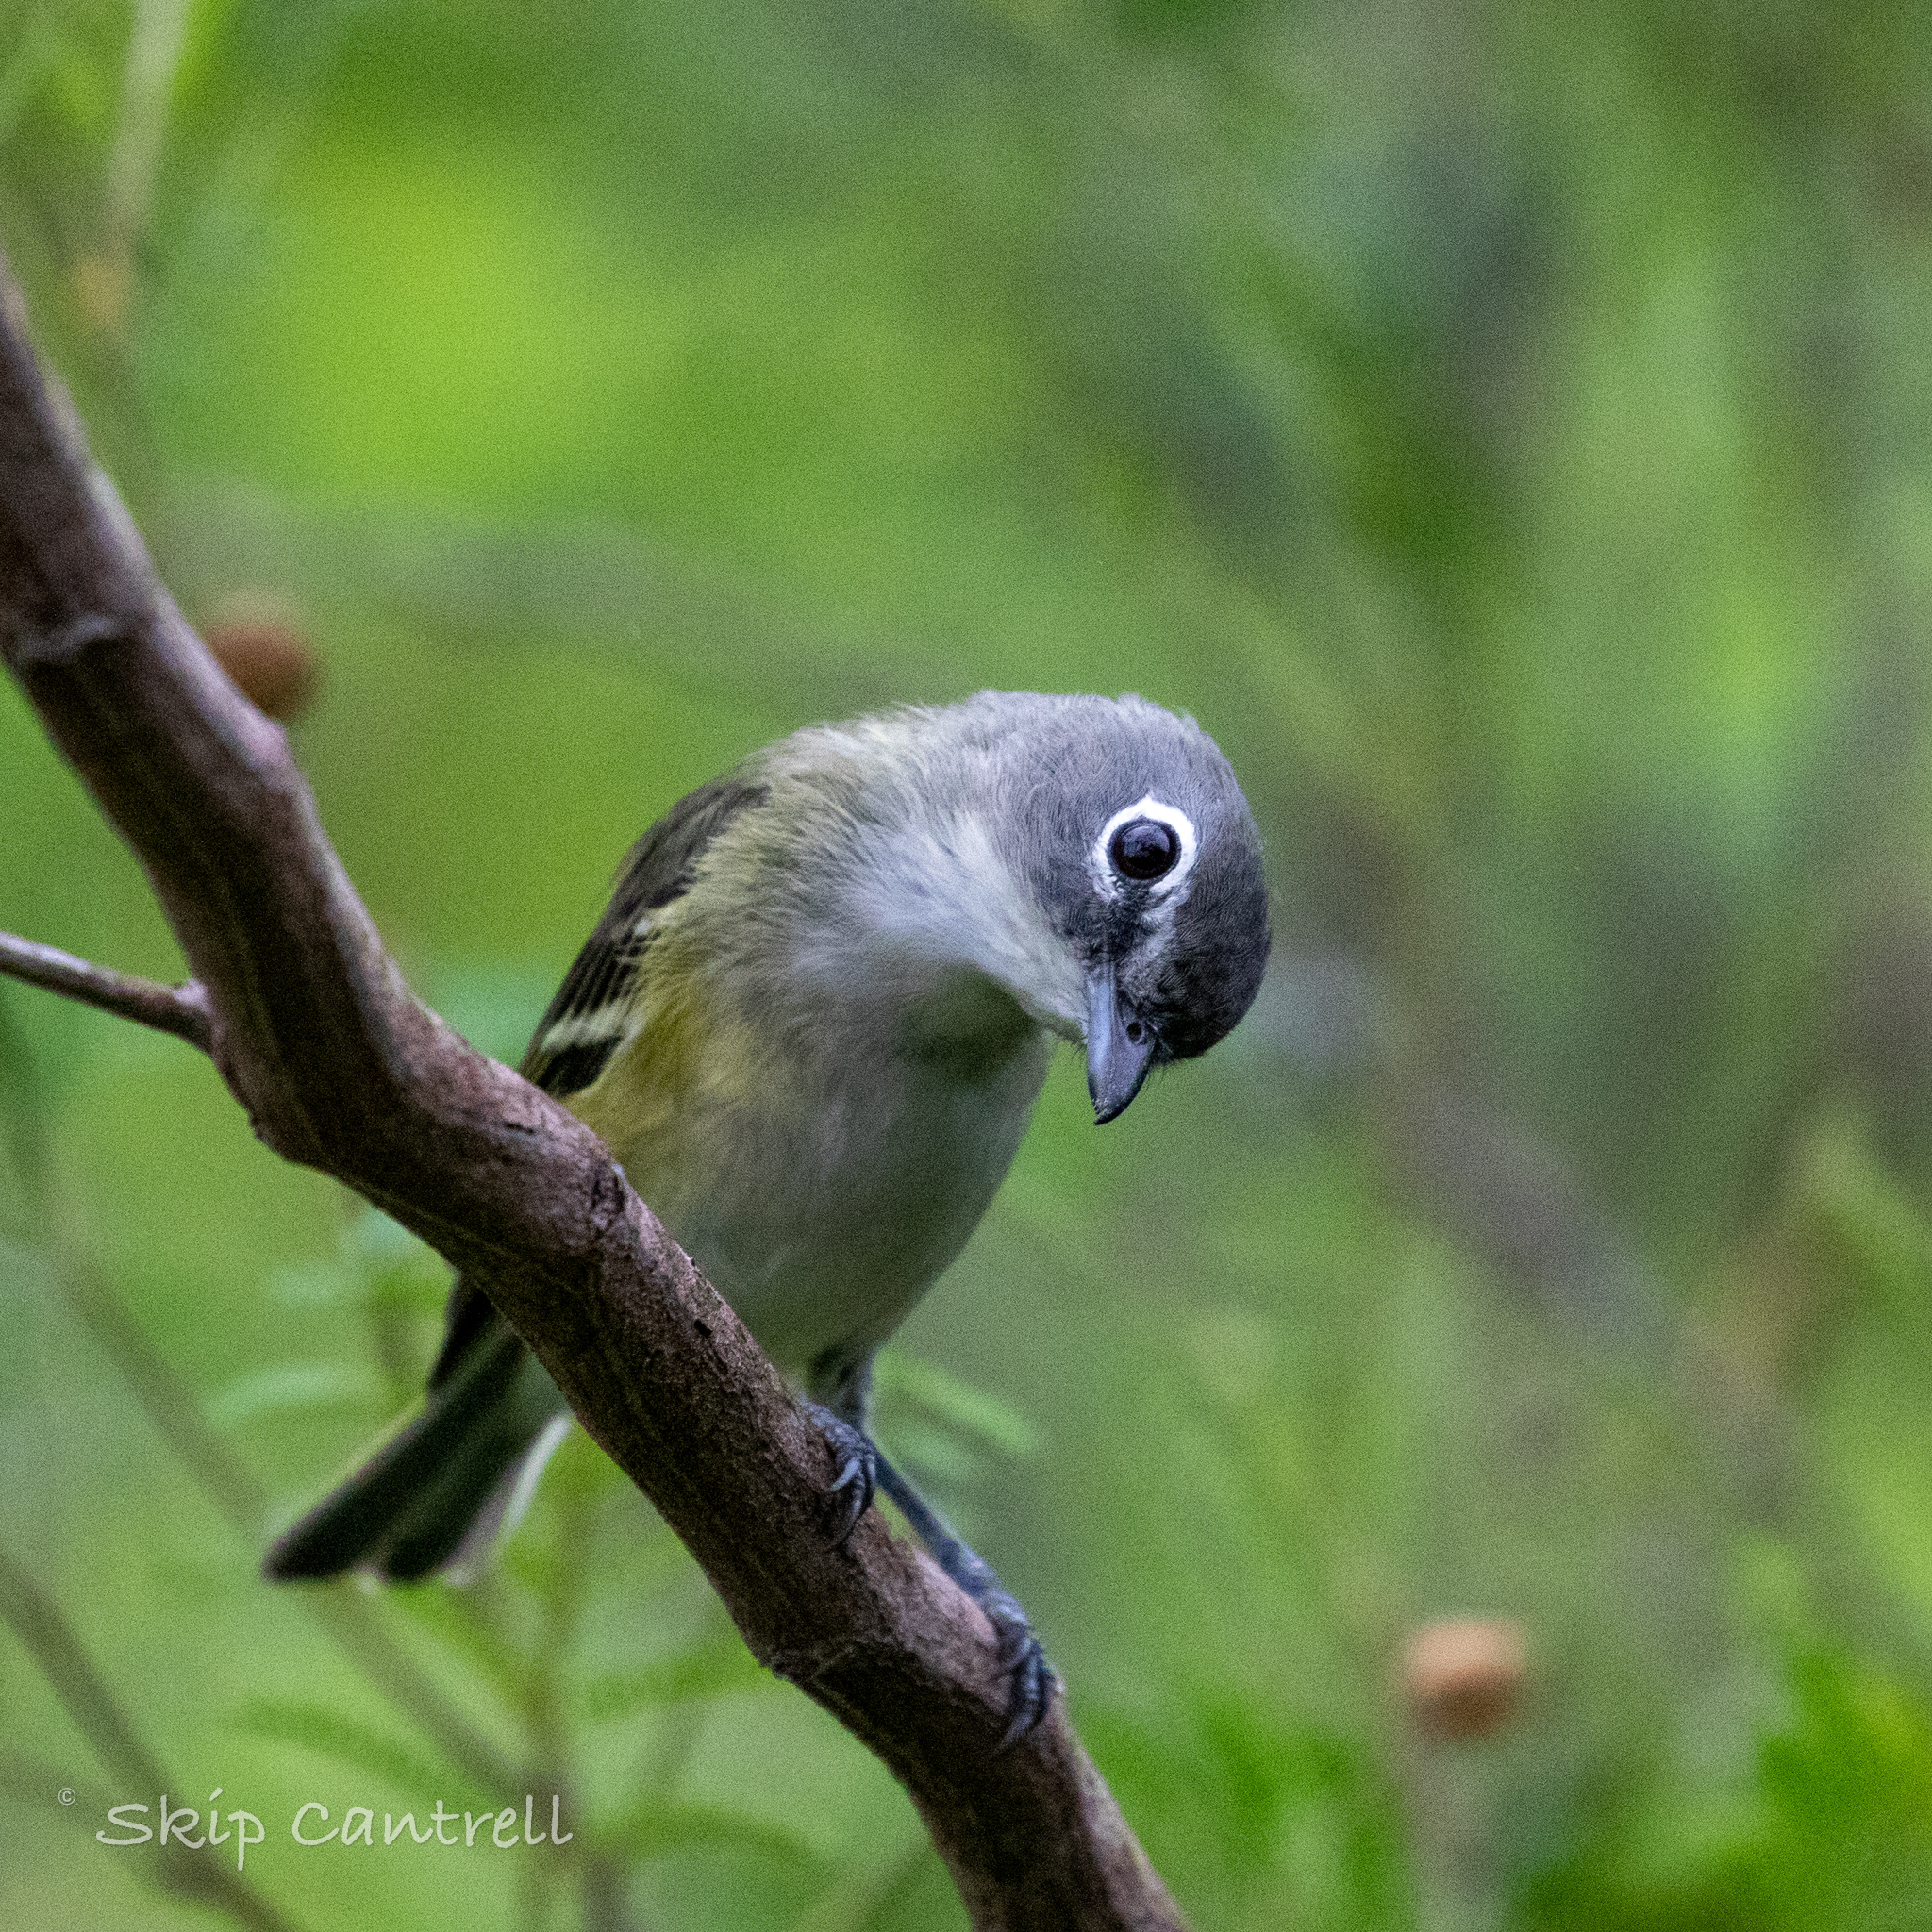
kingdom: Animalia
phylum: Chordata
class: Aves
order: Passeriformes
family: Vireonidae
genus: Vireo
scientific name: Vireo solitarius
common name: Blue-headed vireo
